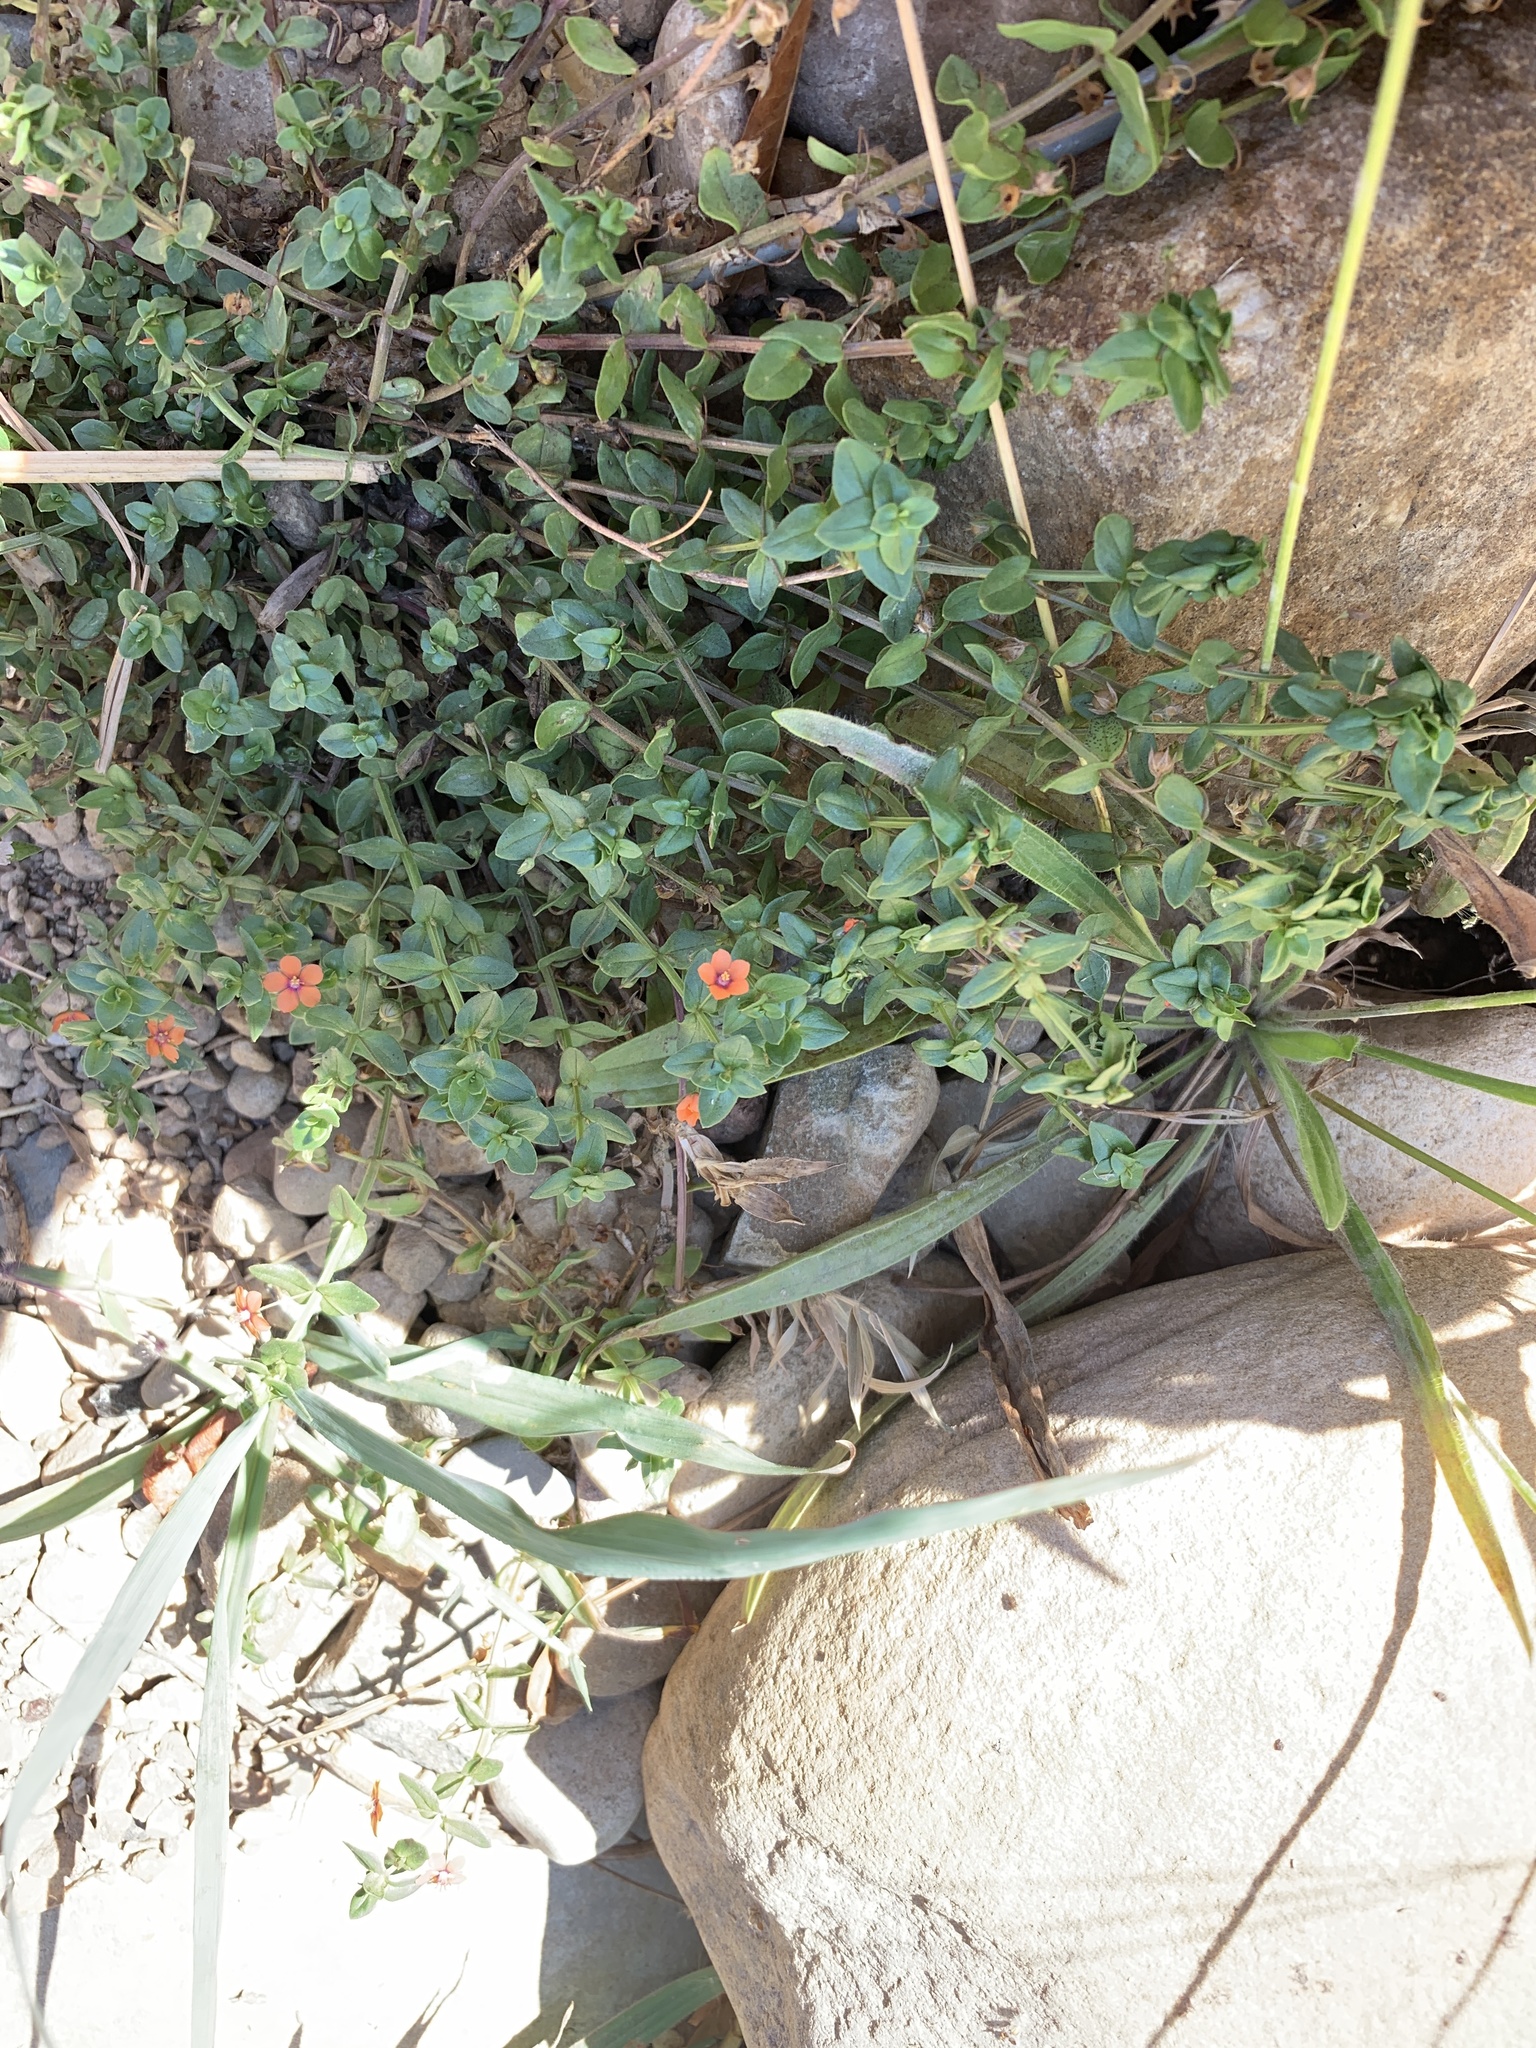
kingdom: Plantae
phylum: Tracheophyta
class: Magnoliopsida
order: Ericales
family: Primulaceae
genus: Lysimachia
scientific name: Lysimachia arvensis
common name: Scarlet pimpernel
